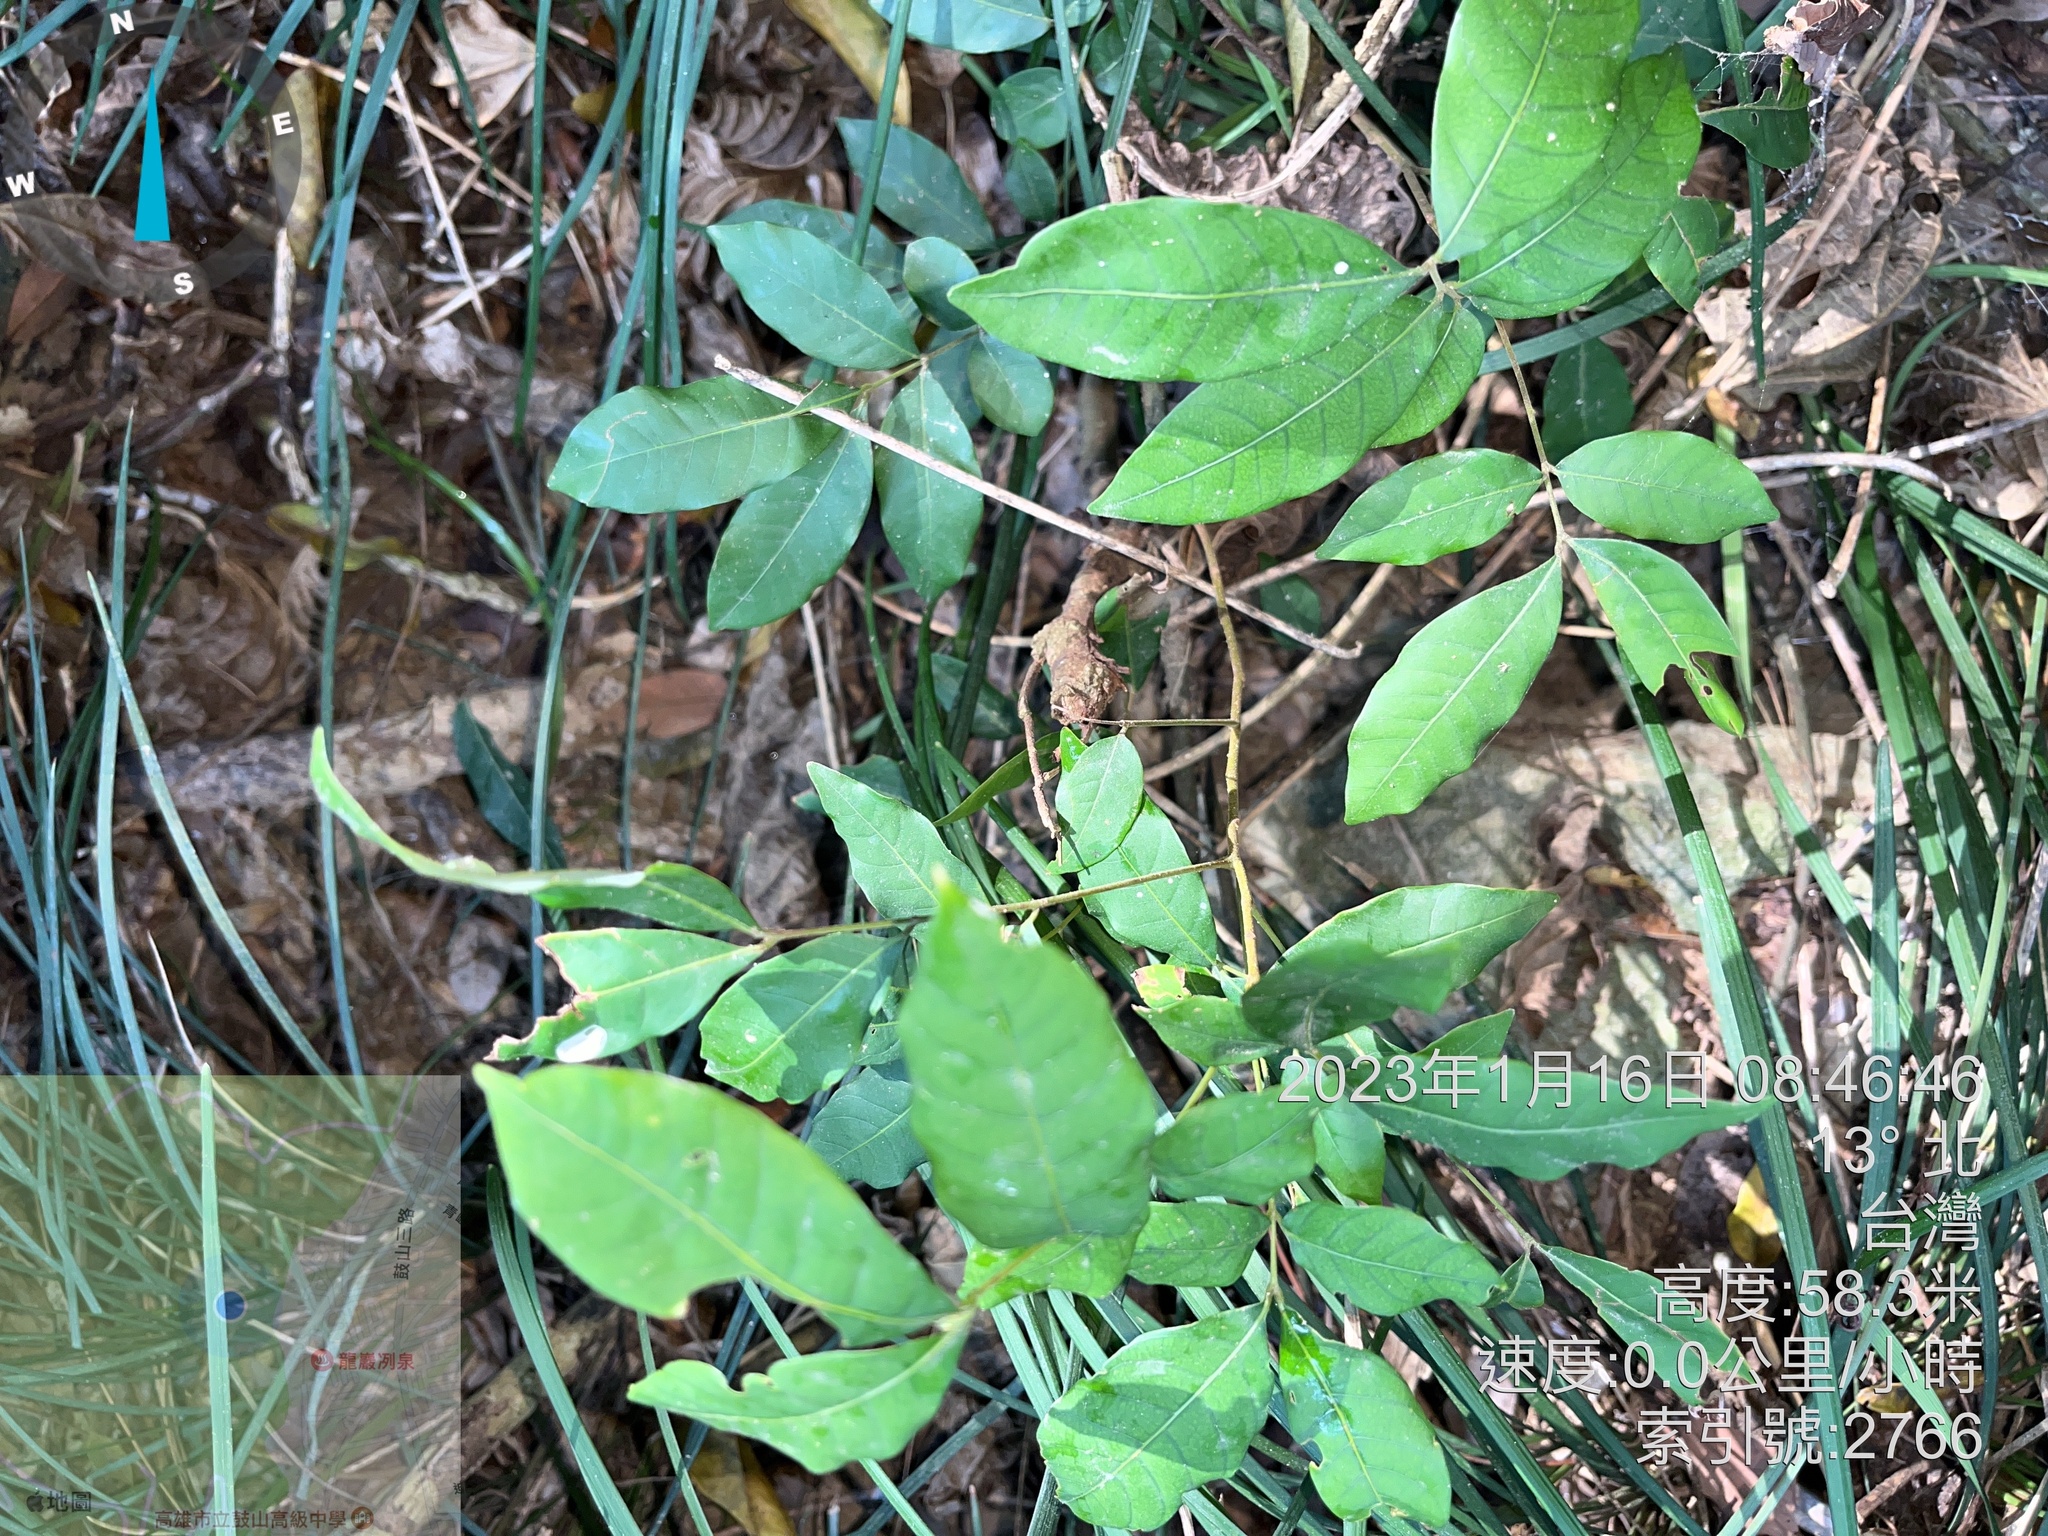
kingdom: Plantae
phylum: Tracheophyta
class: Magnoliopsida
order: Sapindales
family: Sapindaceae
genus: Dimocarpus
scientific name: Dimocarpus longan
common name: Longan
